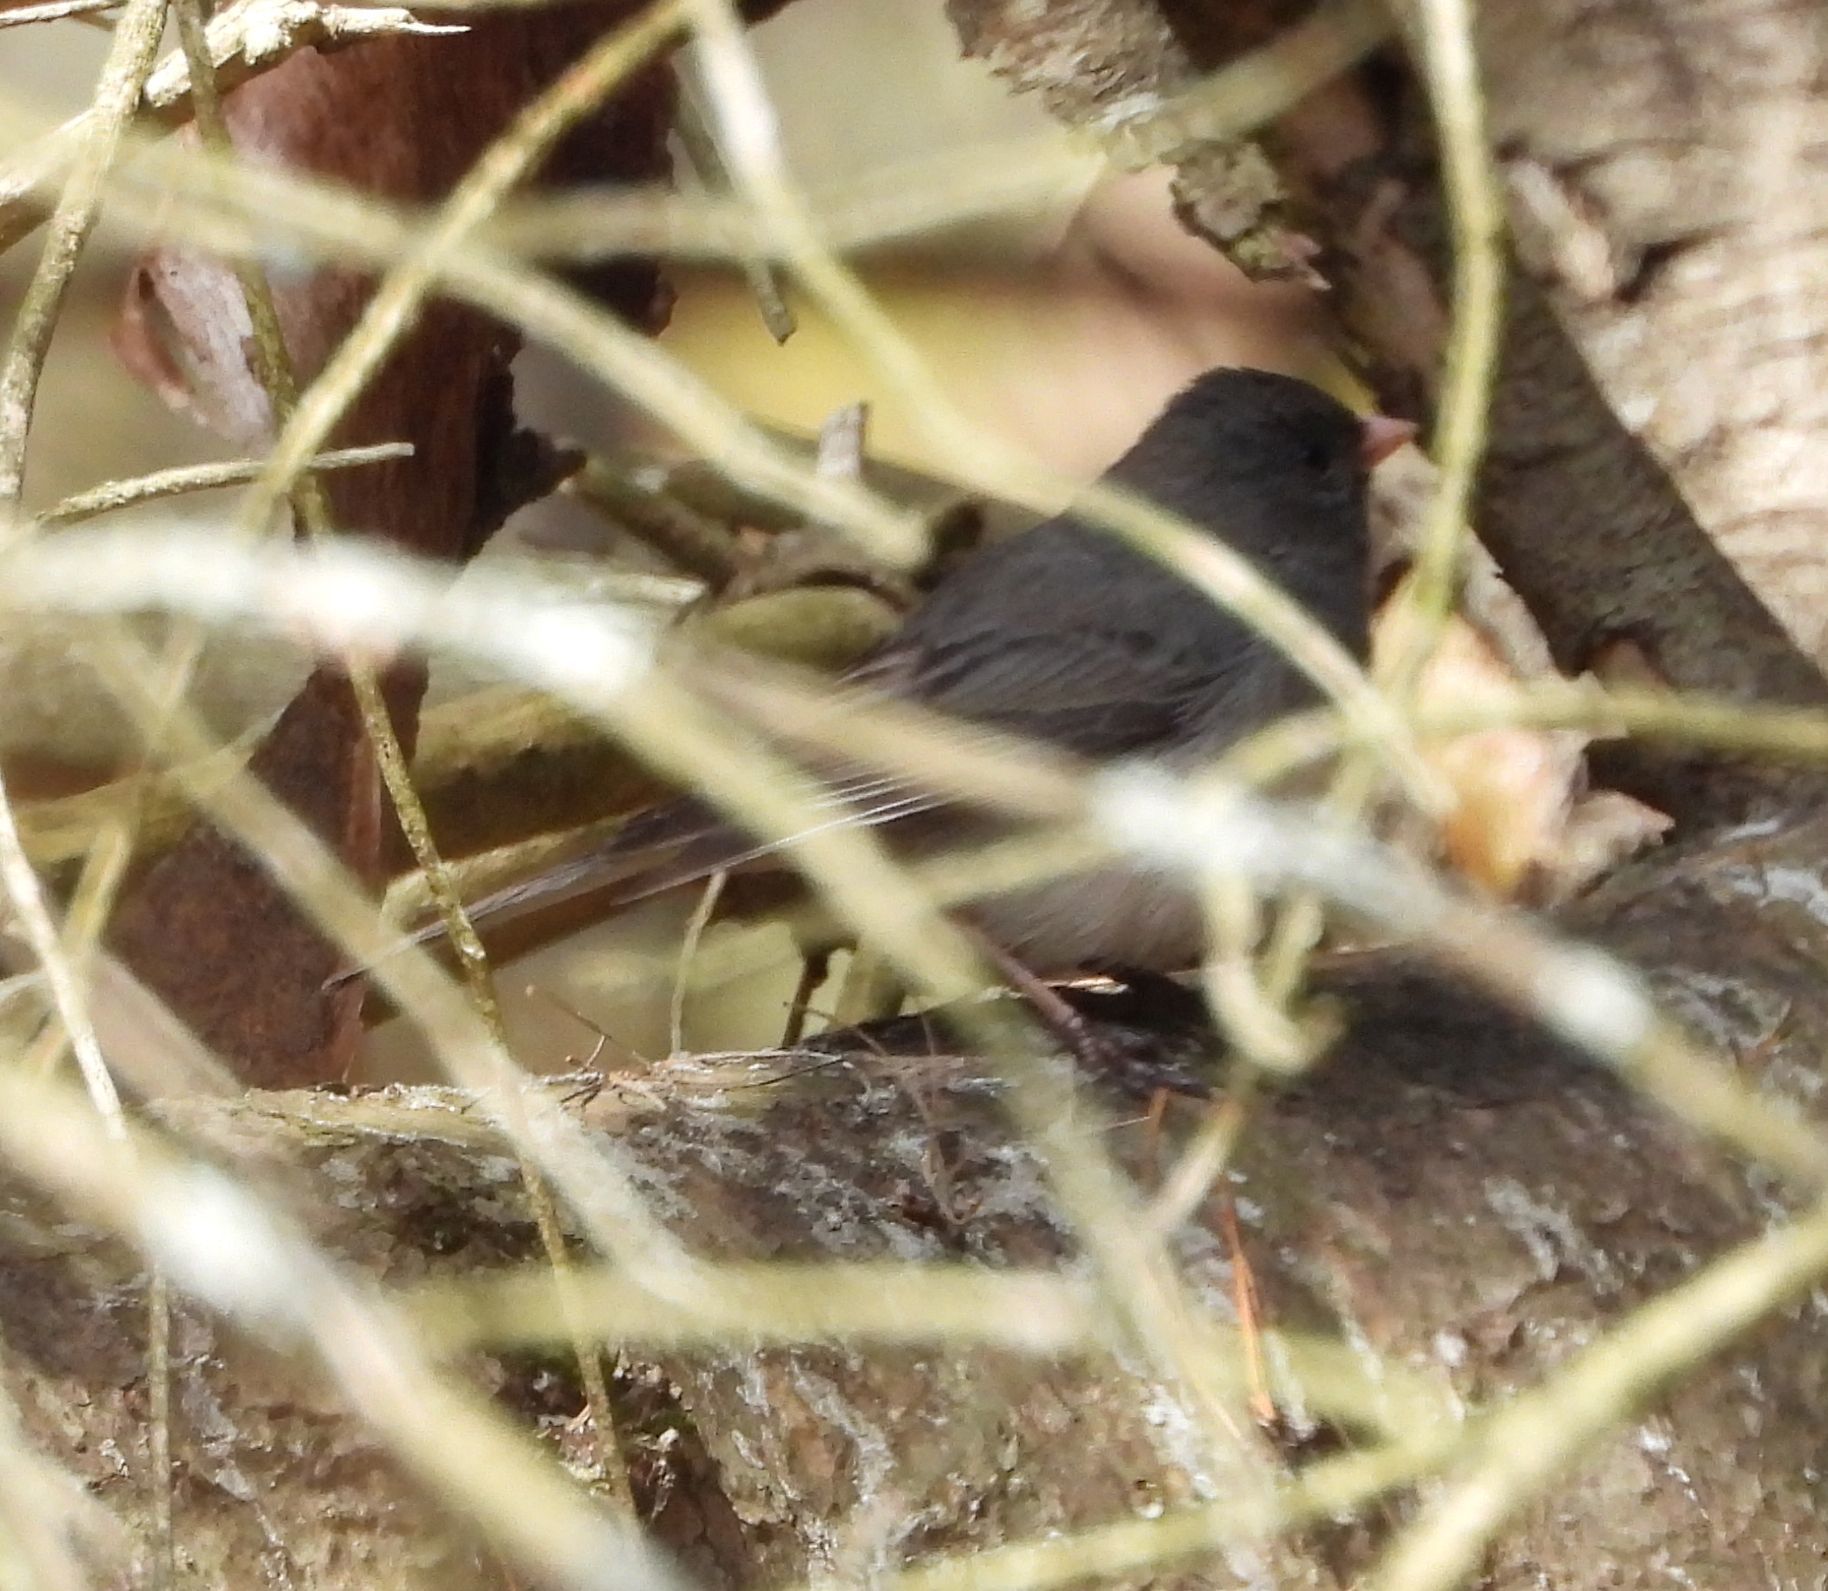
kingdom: Animalia
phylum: Chordata
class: Aves
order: Passeriformes
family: Passerellidae
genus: Junco
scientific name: Junco hyemalis
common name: Dark-eyed junco
